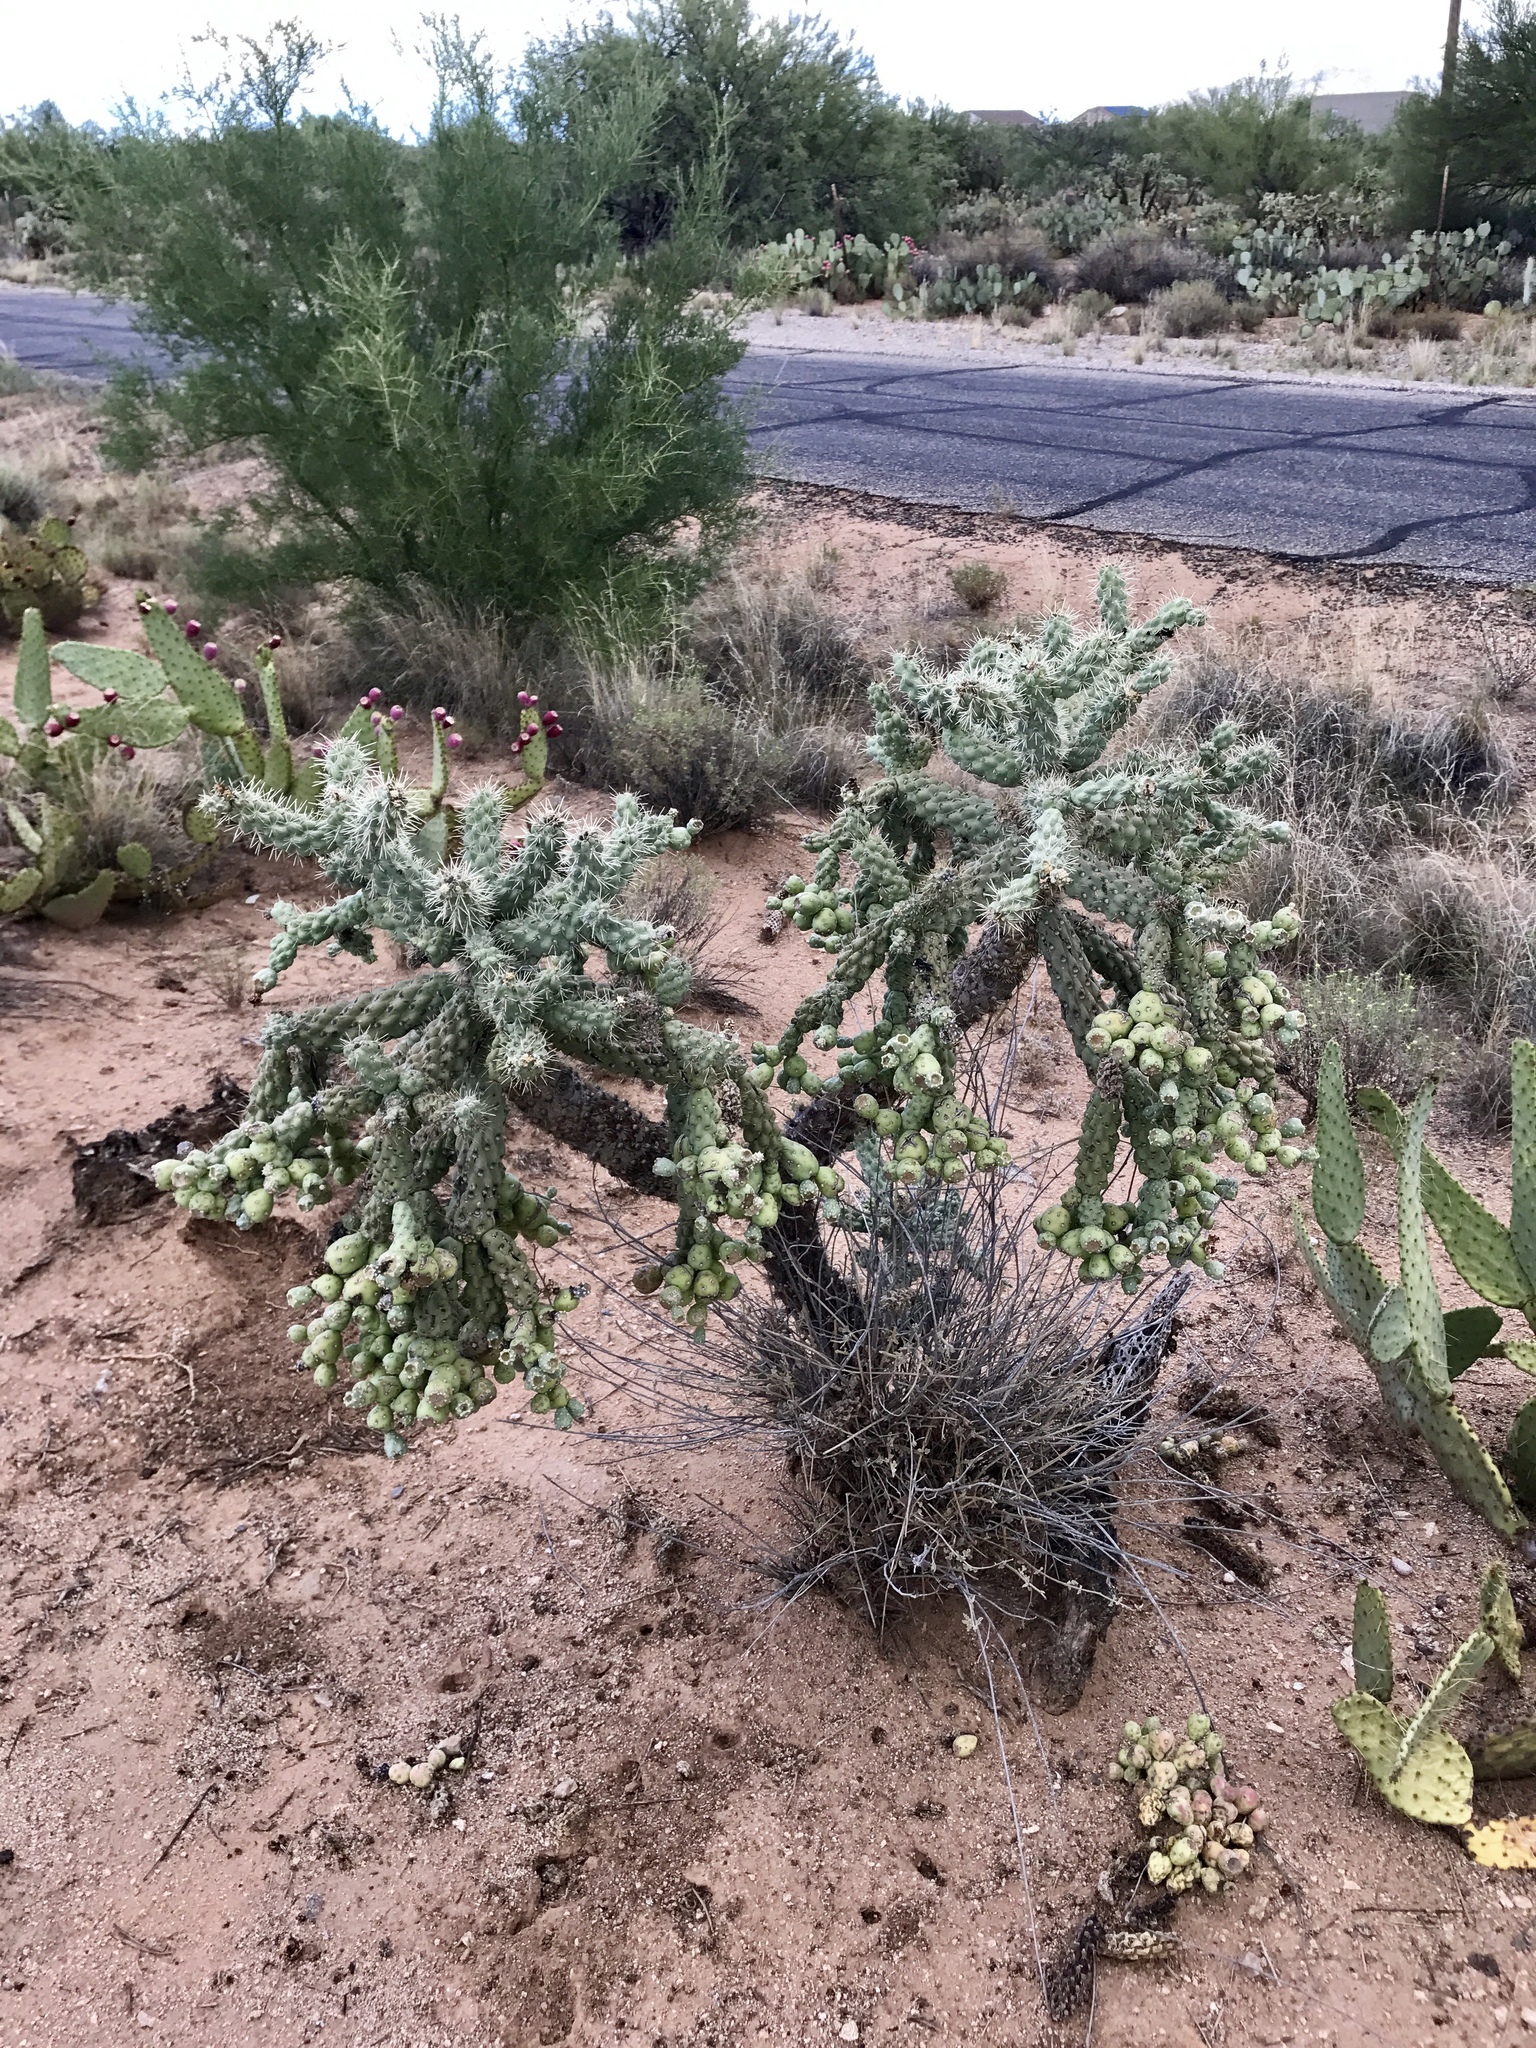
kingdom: Plantae
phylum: Tracheophyta
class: Magnoliopsida
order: Caryophyllales
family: Cactaceae
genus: Cylindropuntia
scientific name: Cylindropuntia fulgida
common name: Jumping cholla
